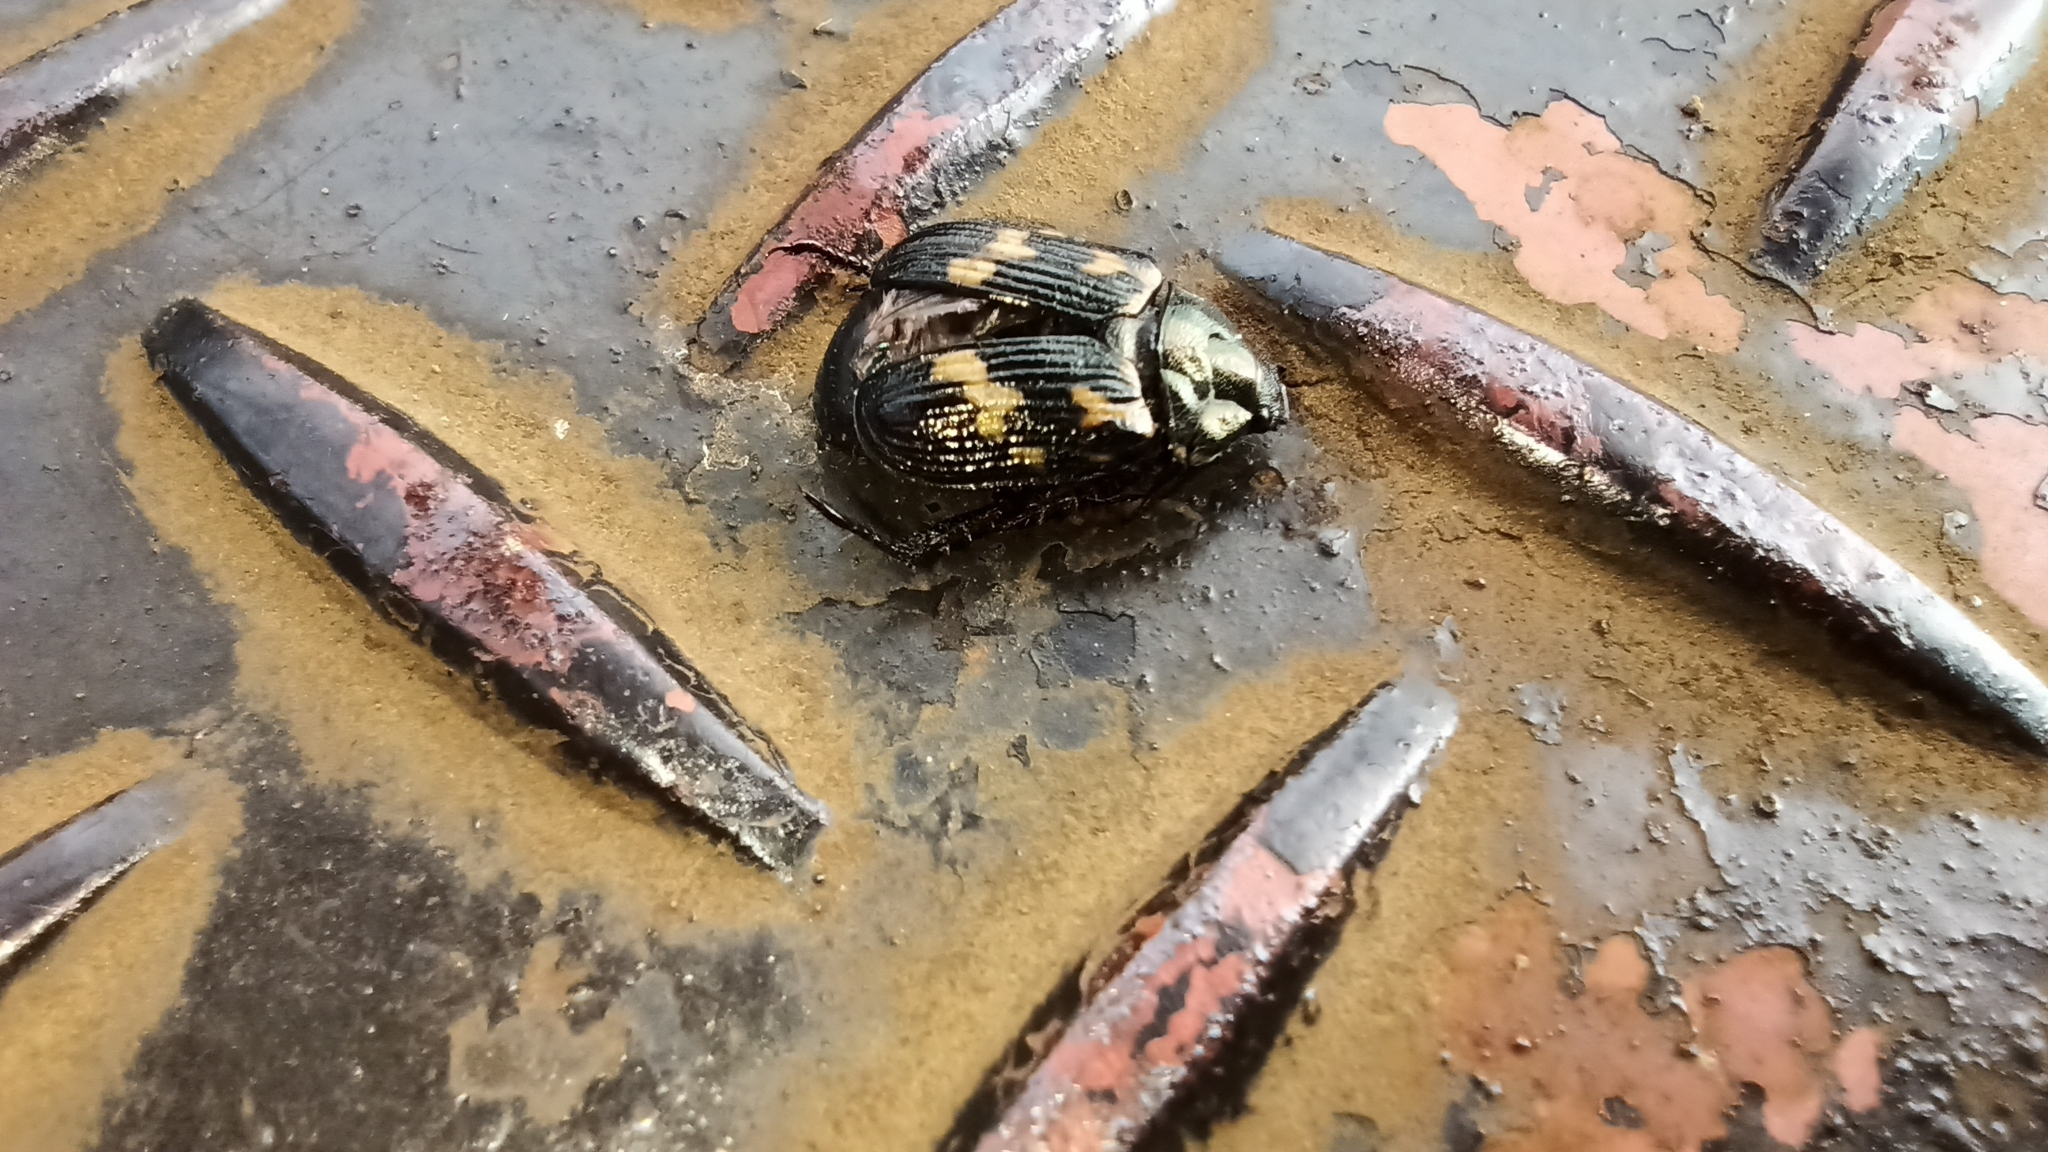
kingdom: Animalia
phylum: Arthropoda
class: Insecta
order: Coleoptera
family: Scarabaeidae
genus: Exomala
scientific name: Exomala orientalis
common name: Oriental beetle
